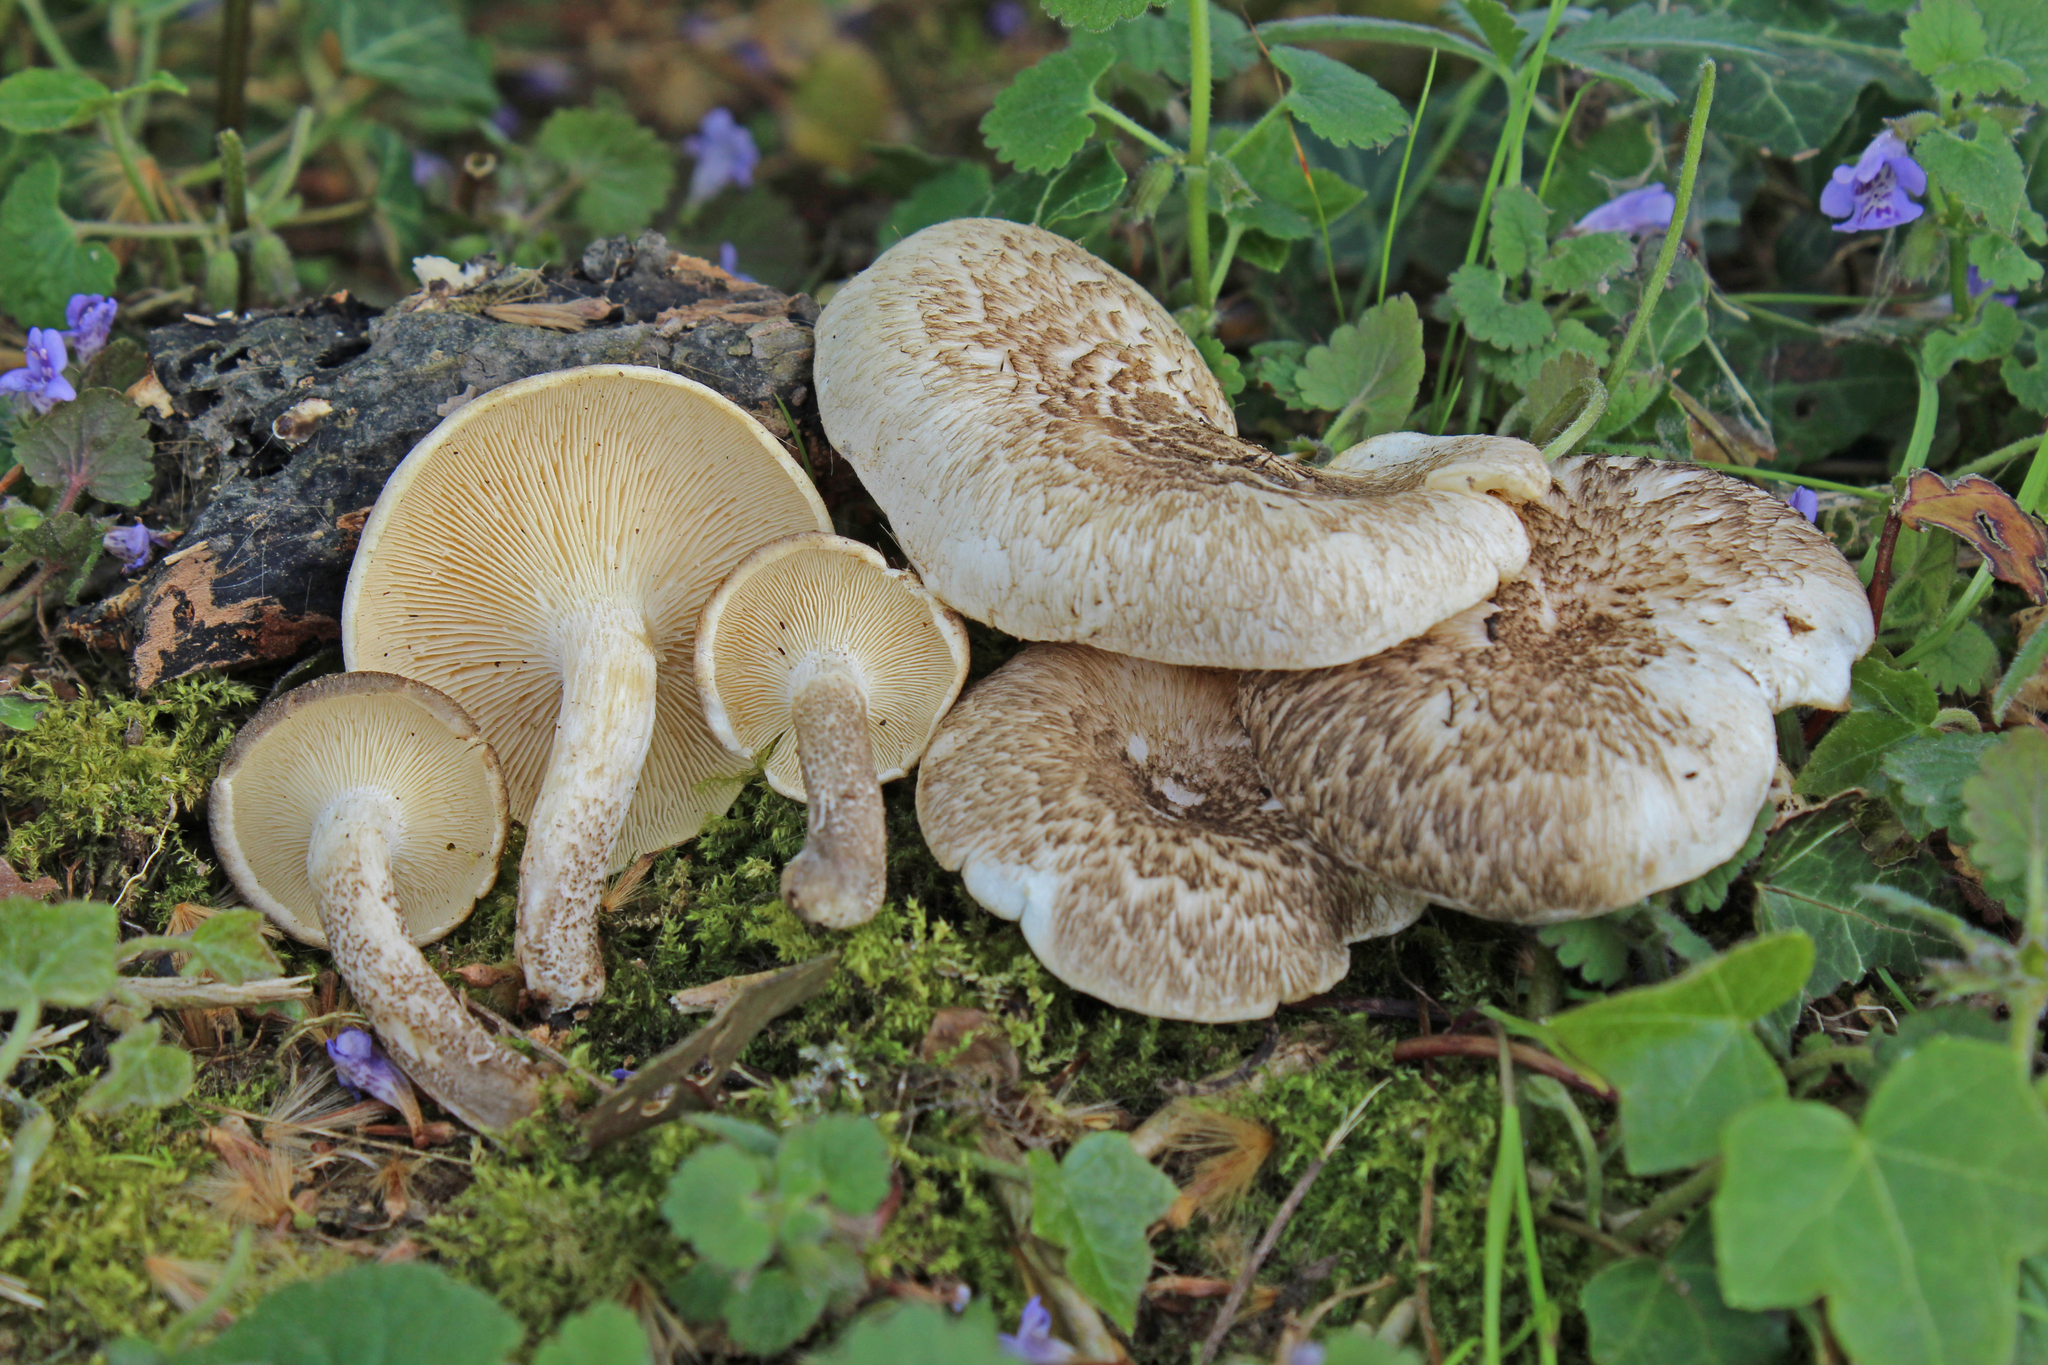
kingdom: Fungi
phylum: Basidiomycota
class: Agaricomycetes
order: Polyporales
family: Polyporaceae
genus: Lentinus
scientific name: Lentinus tigrinus
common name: Tiger sawgill
